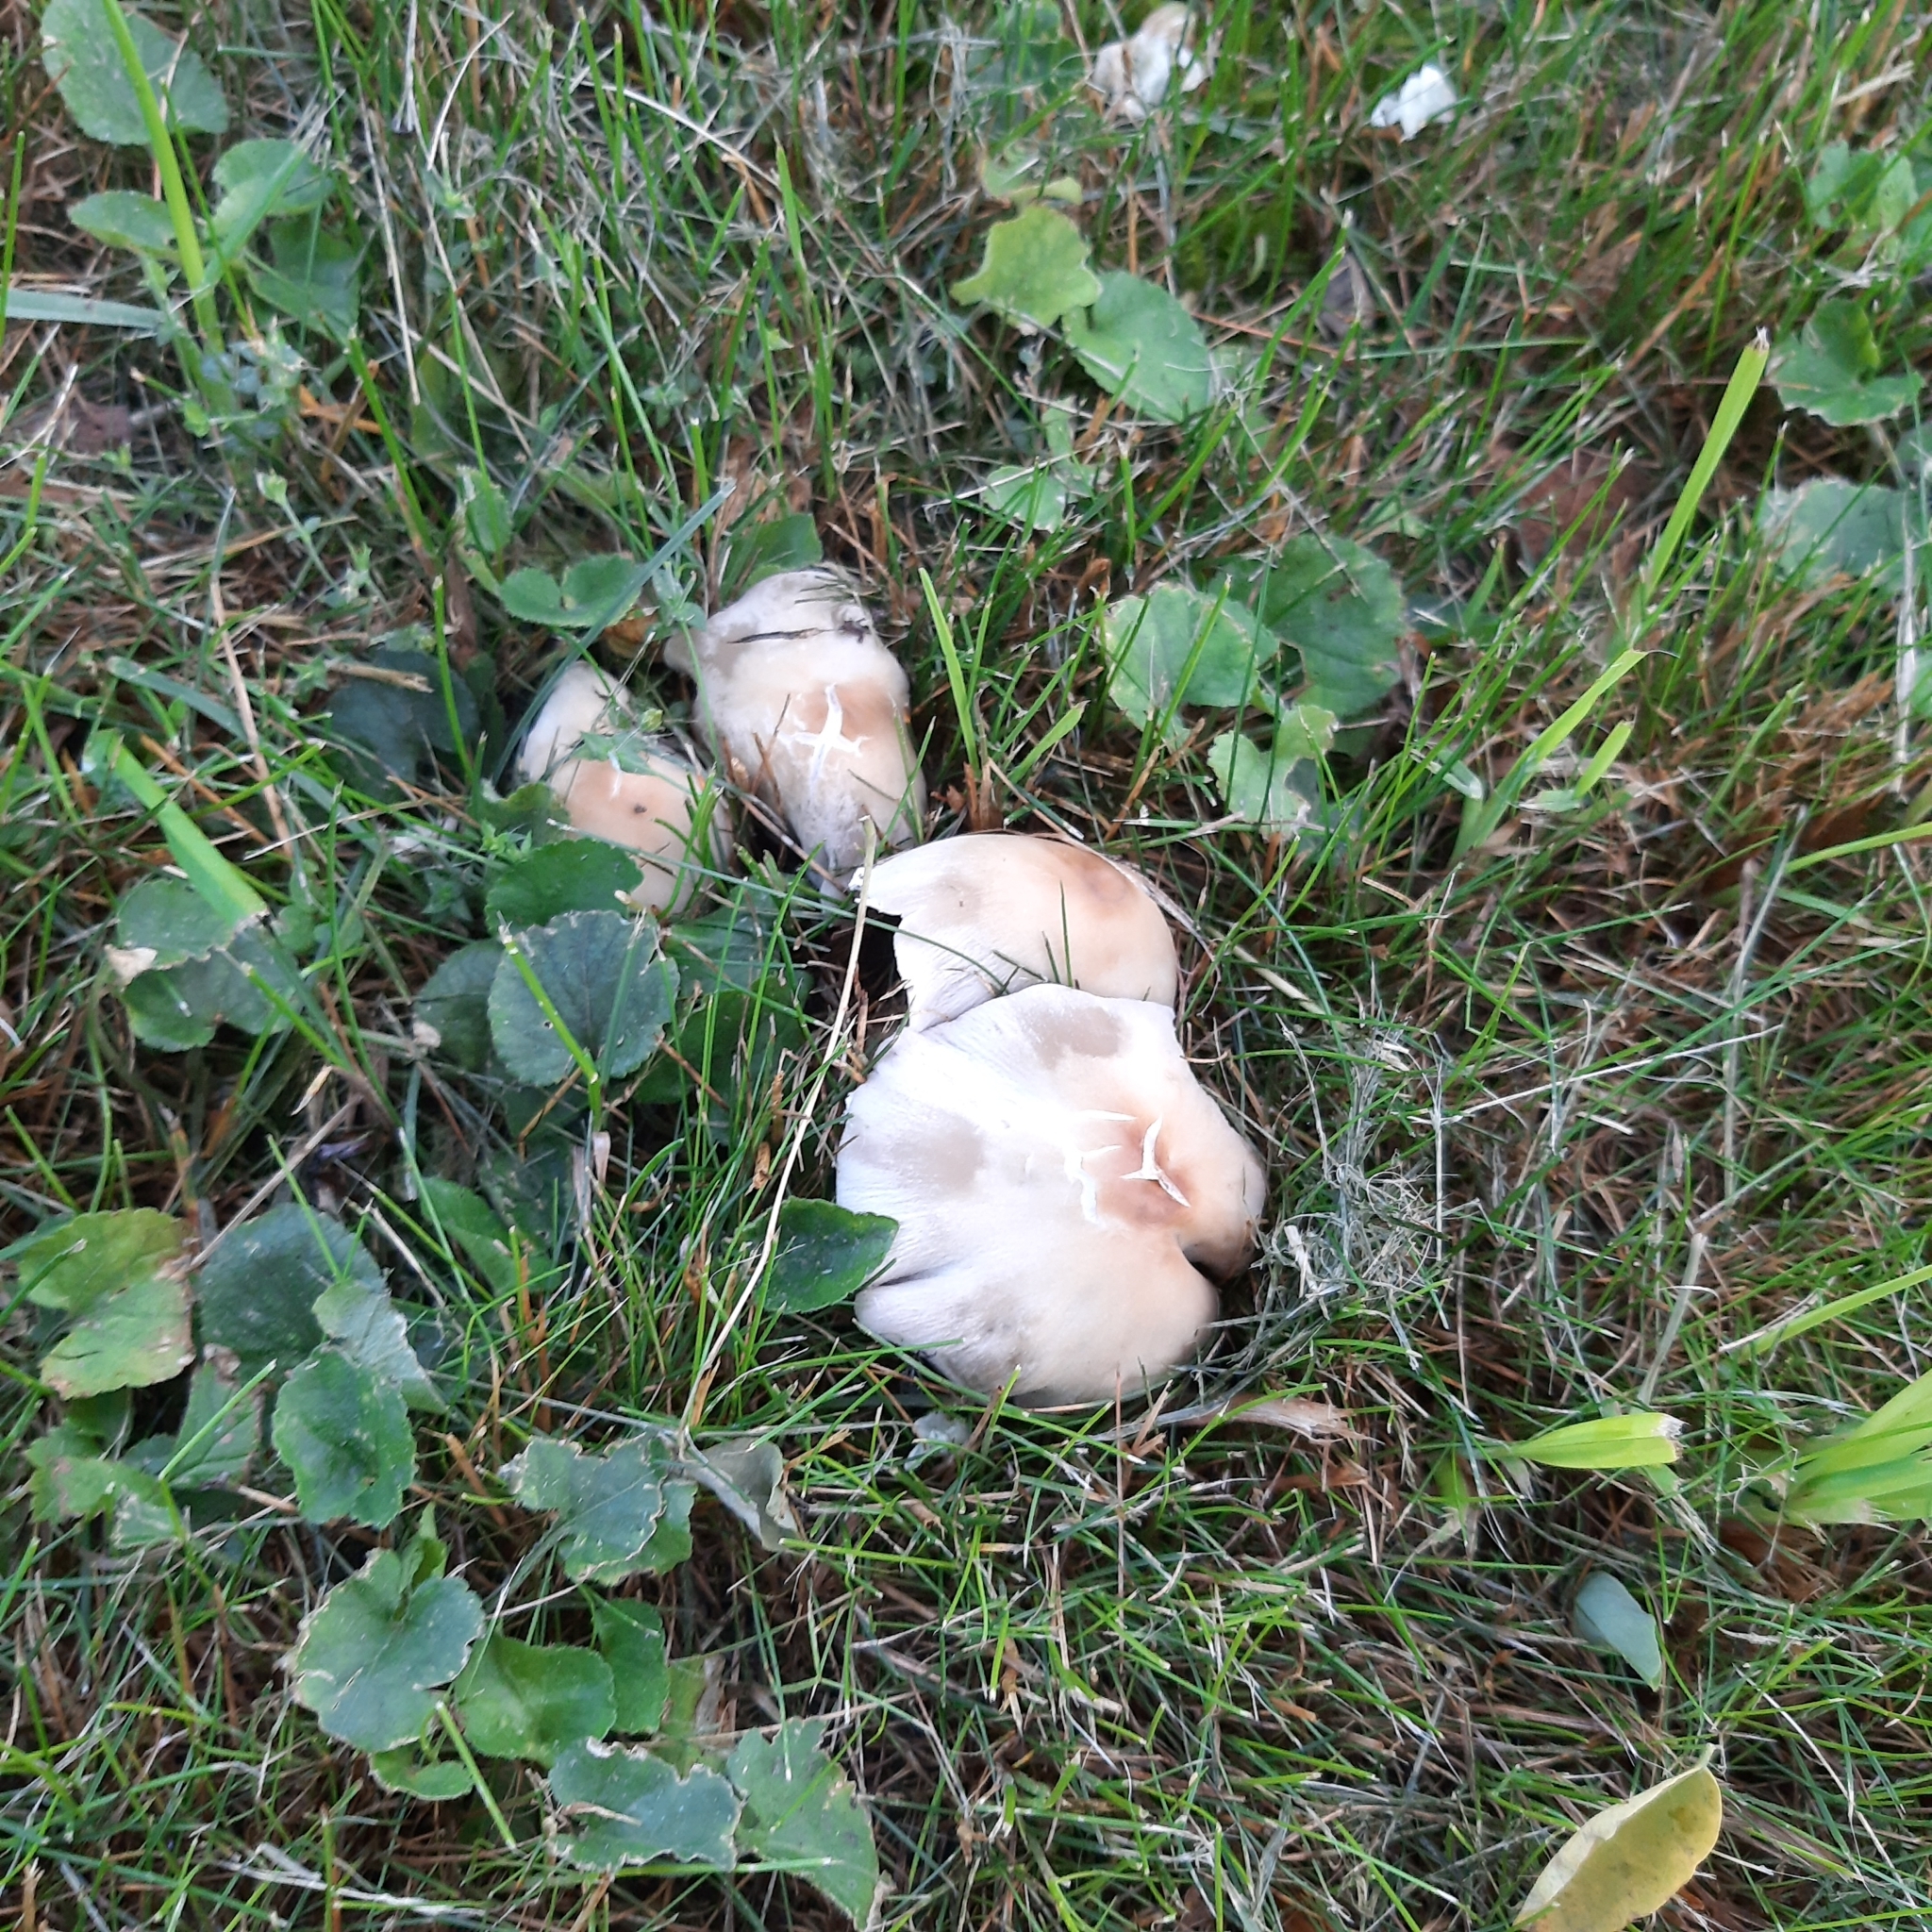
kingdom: Fungi
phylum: Basidiomycota
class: Agaricomycetes
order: Agaricales
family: Psathyrellaceae
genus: Candolleomyces
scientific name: Candolleomyces candolleanus
